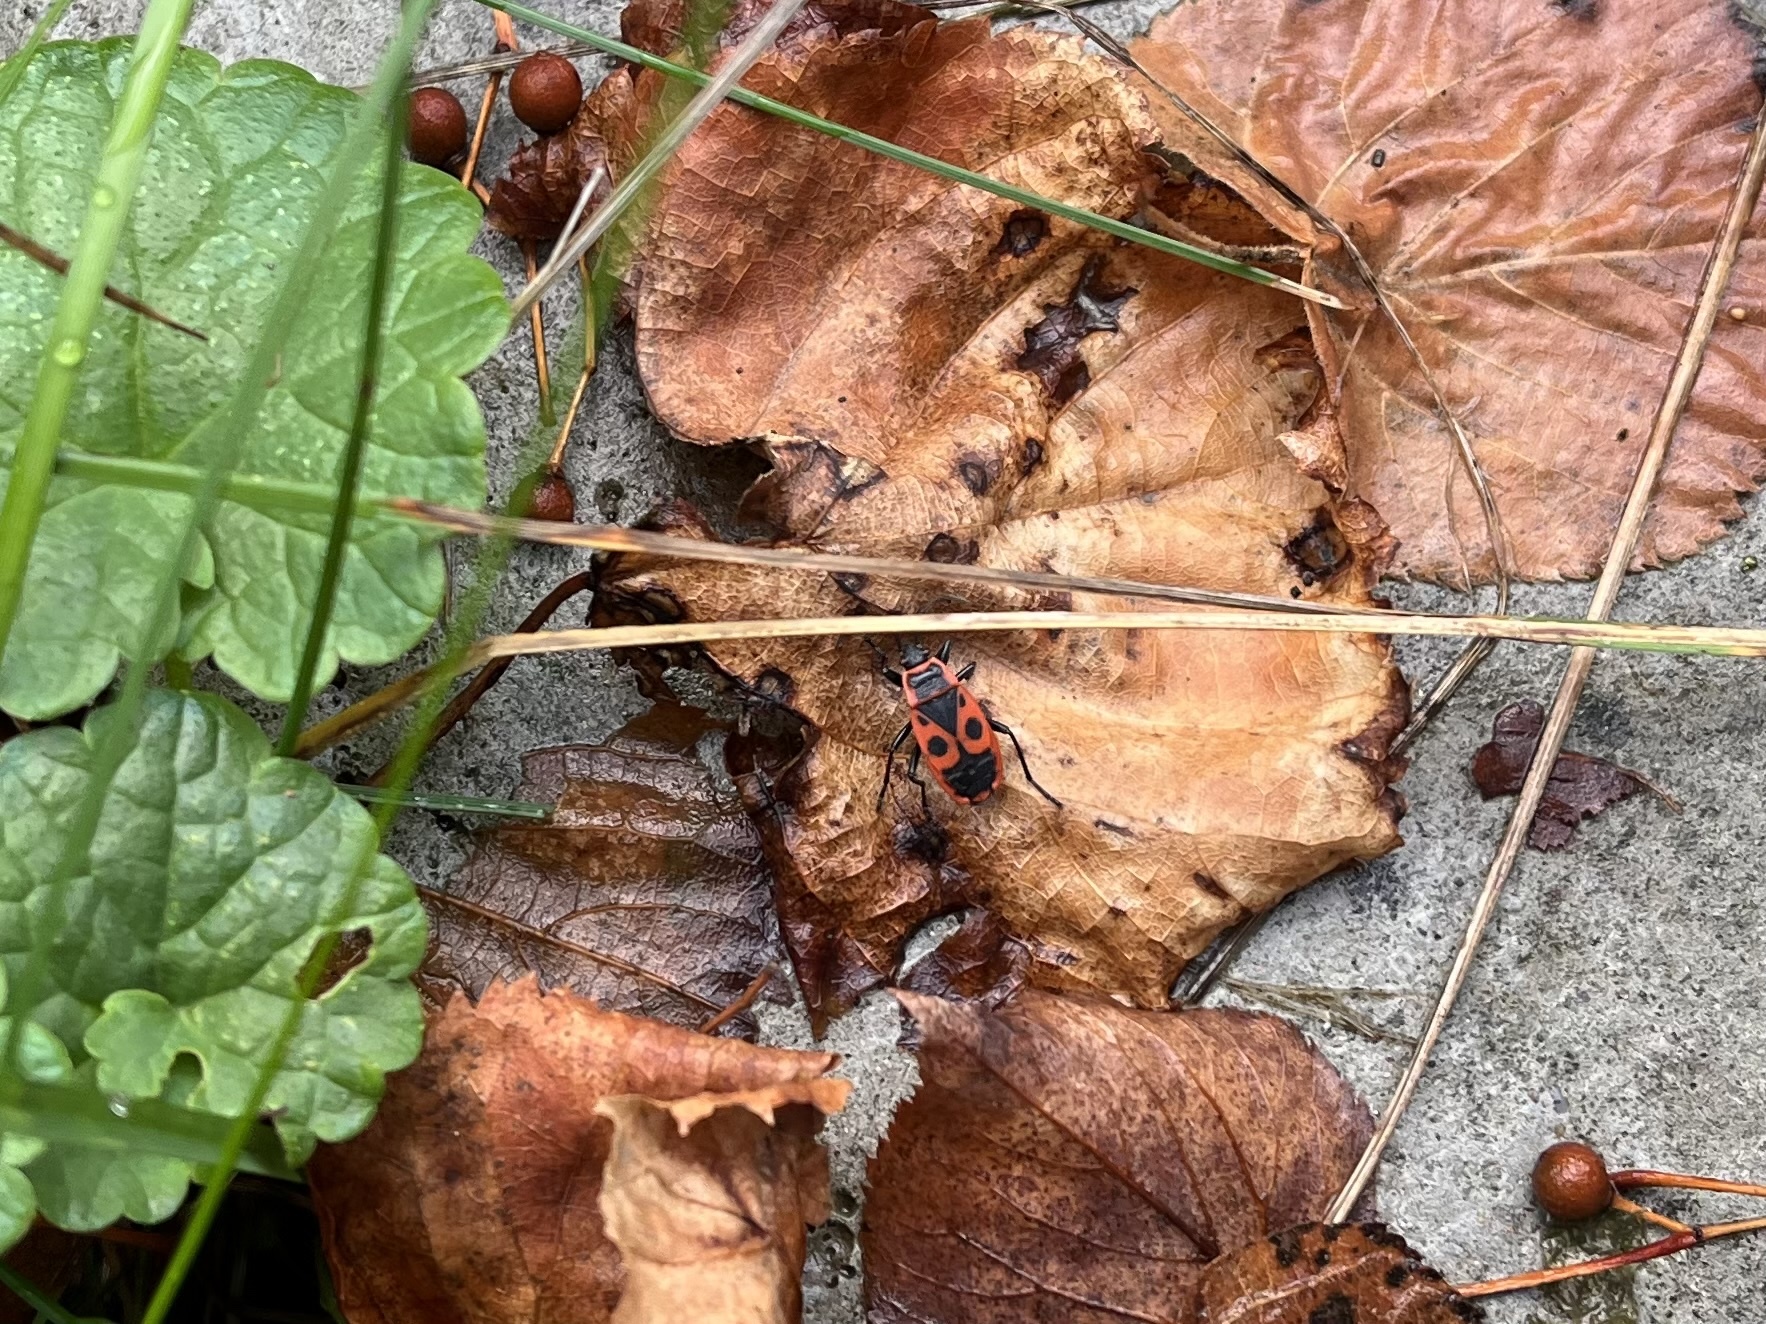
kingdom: Animalia
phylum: Arthropoda
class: Insecta
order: Hemiptera
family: Pyrrhocoridae
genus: Pyrrhocoris
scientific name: Pyrrhocoris apterus
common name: Firebug
